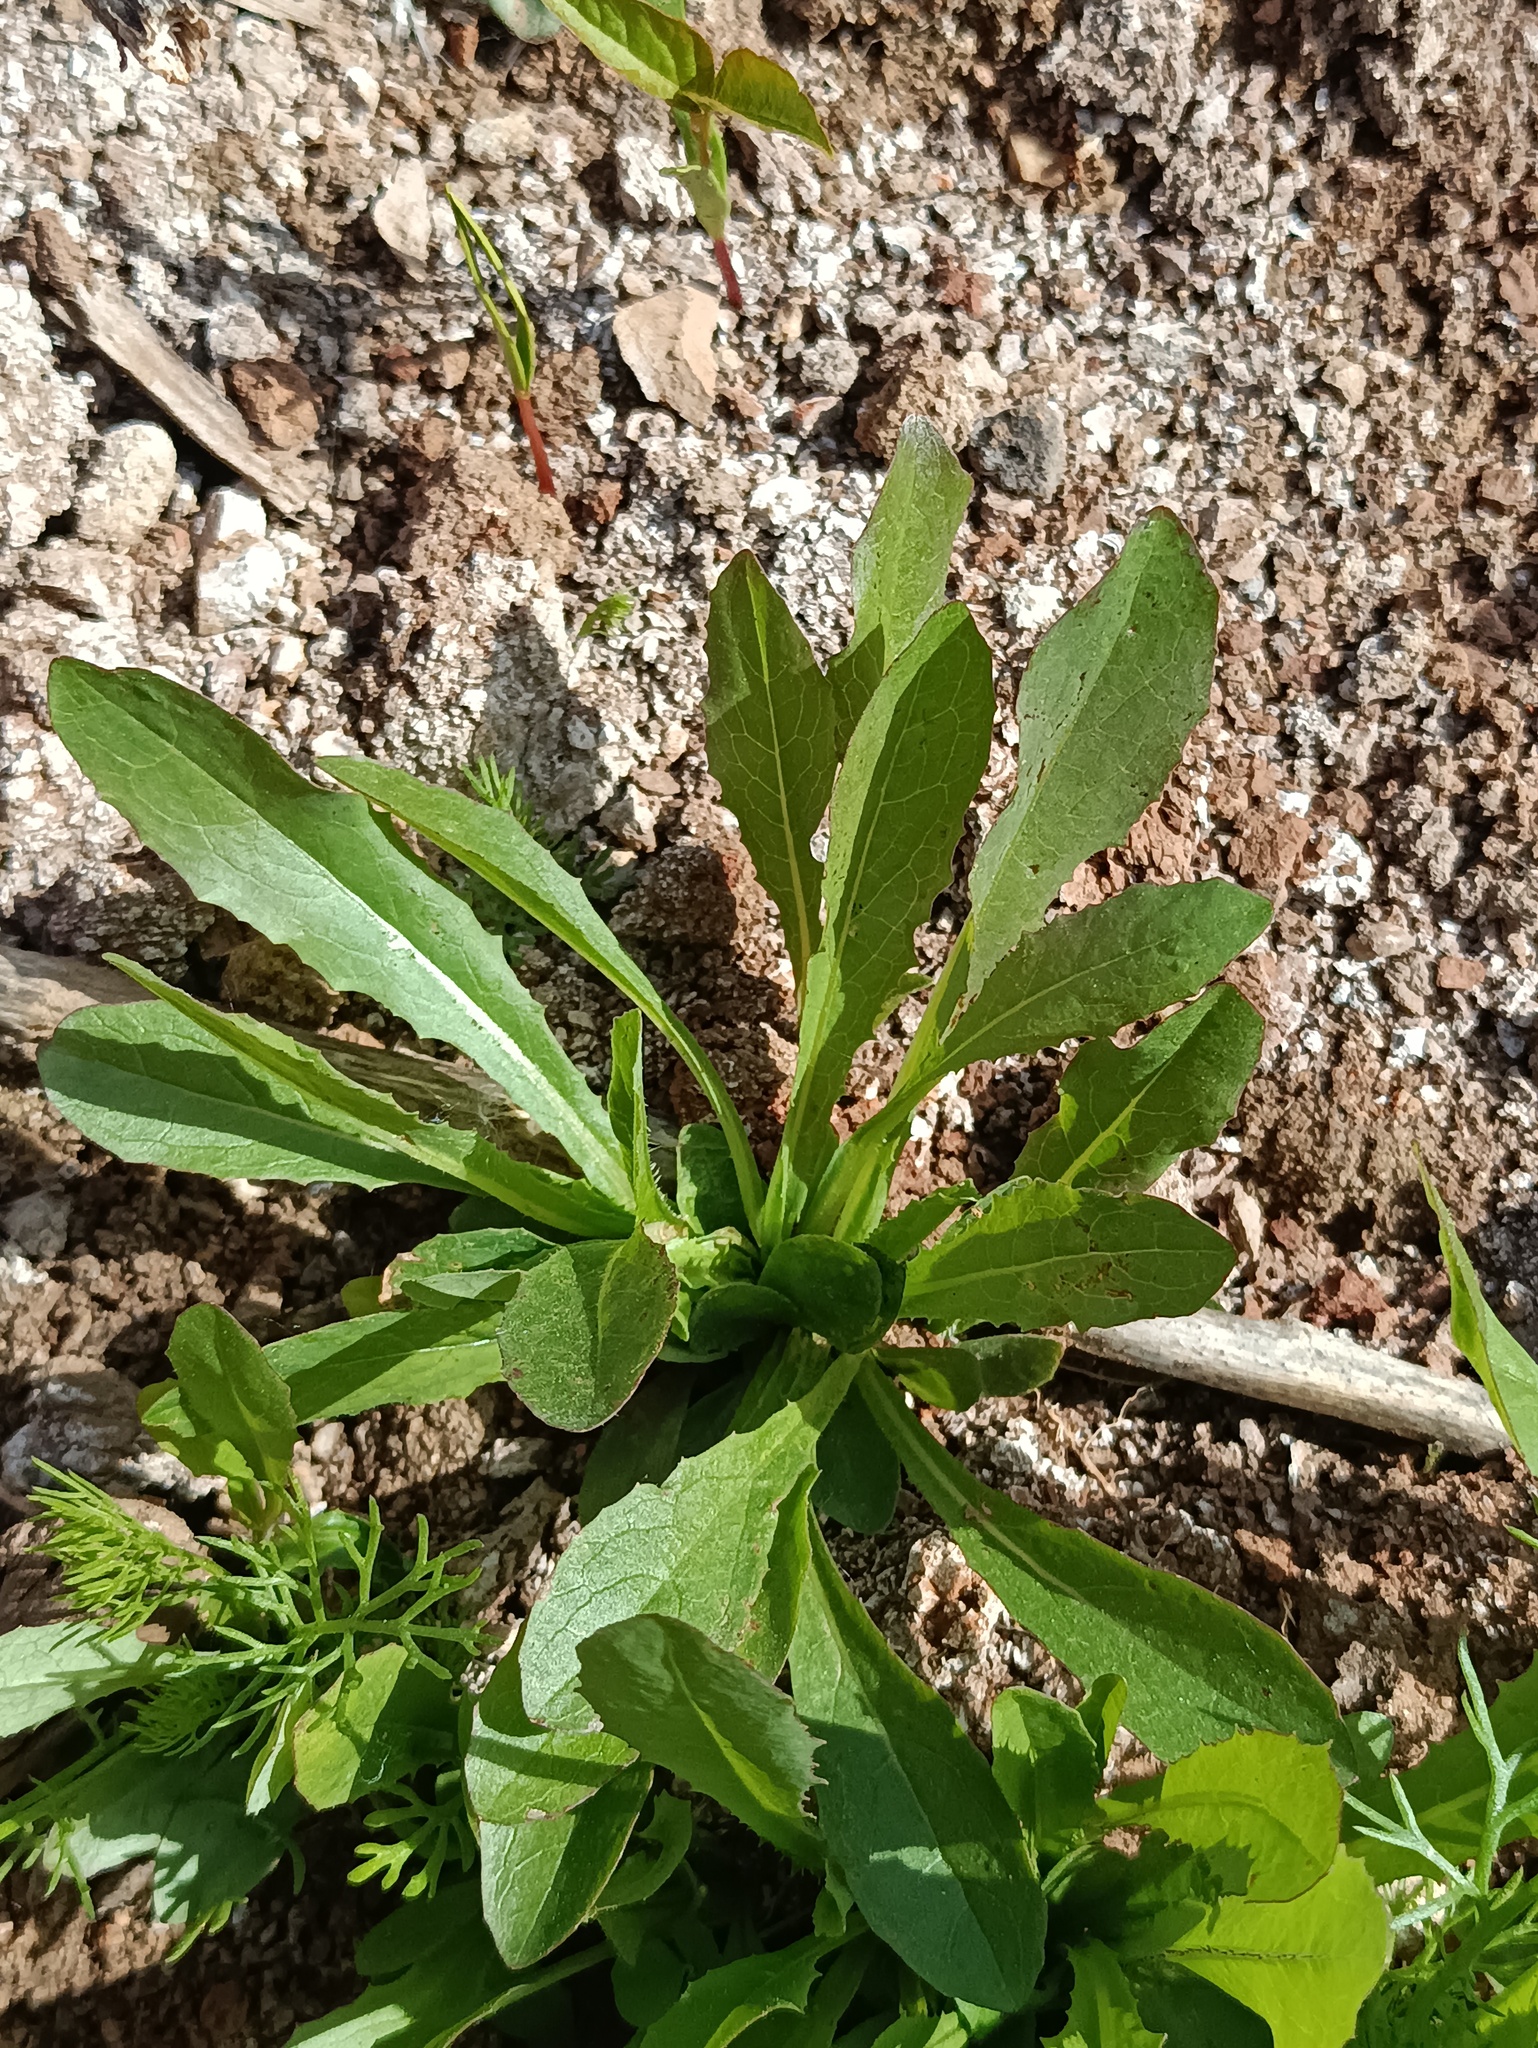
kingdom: Plantae
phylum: Tracheophyta
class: Magnoliopsida
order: Asterales
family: Asteraceae
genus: Lactuca
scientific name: Lactuca serriola
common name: Prickly lettuce
